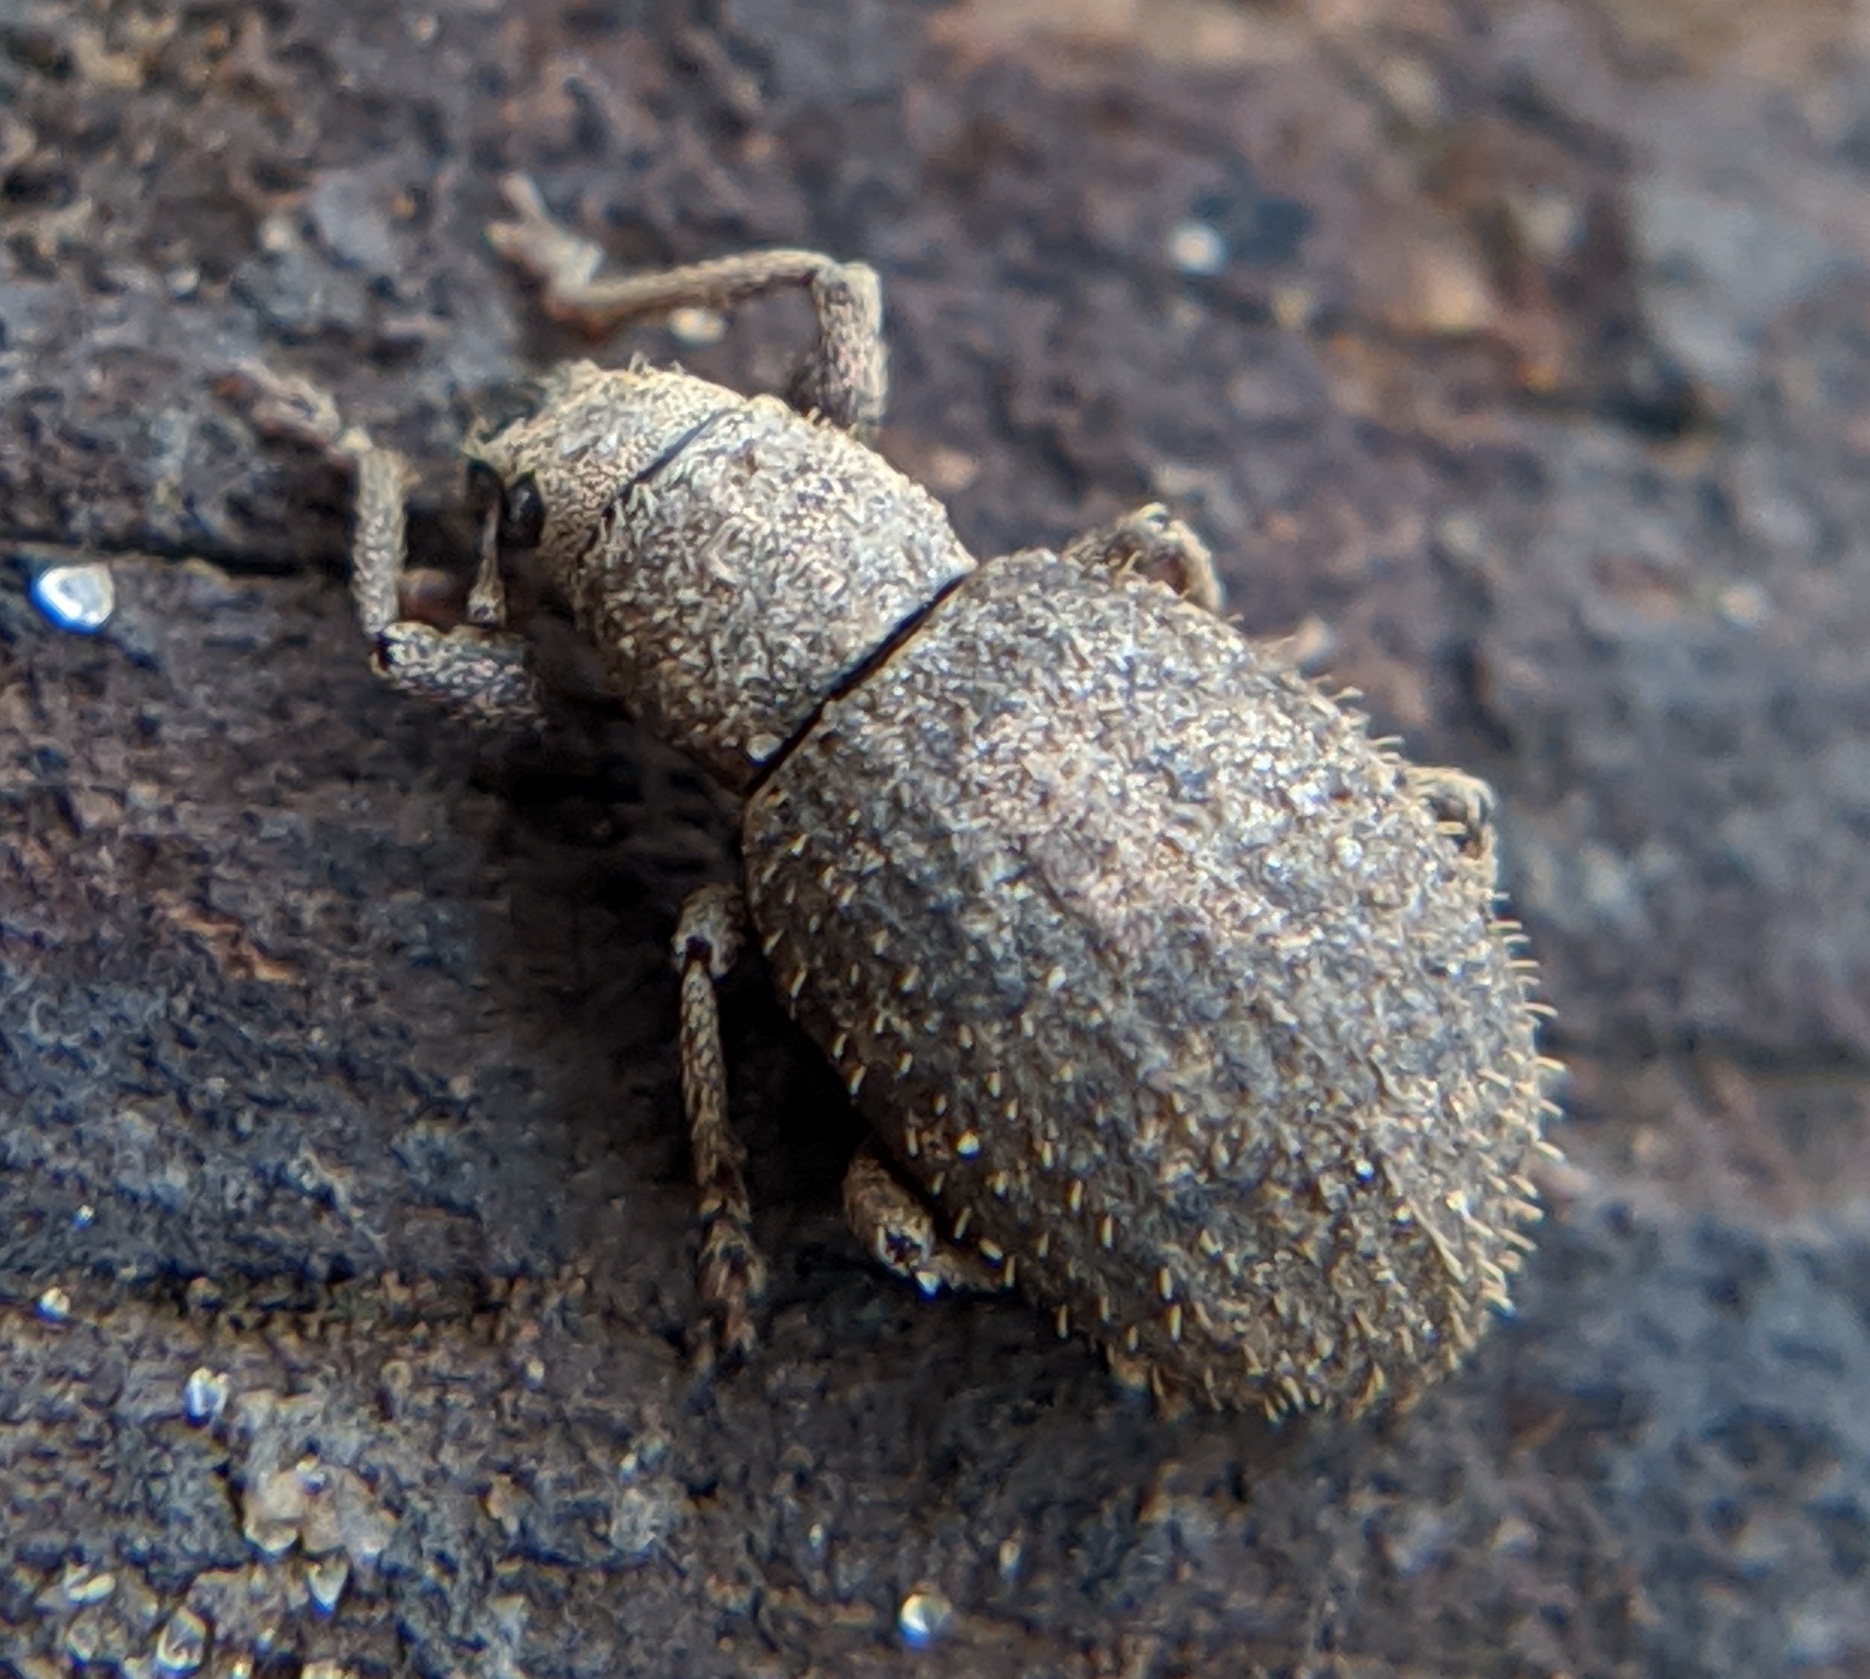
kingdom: Animalia
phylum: Arthropoda
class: Insecta
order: Coleoptera
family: Curculionidae
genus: Sciaphilus
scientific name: Sciaphilus asperatus
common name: Weevil
